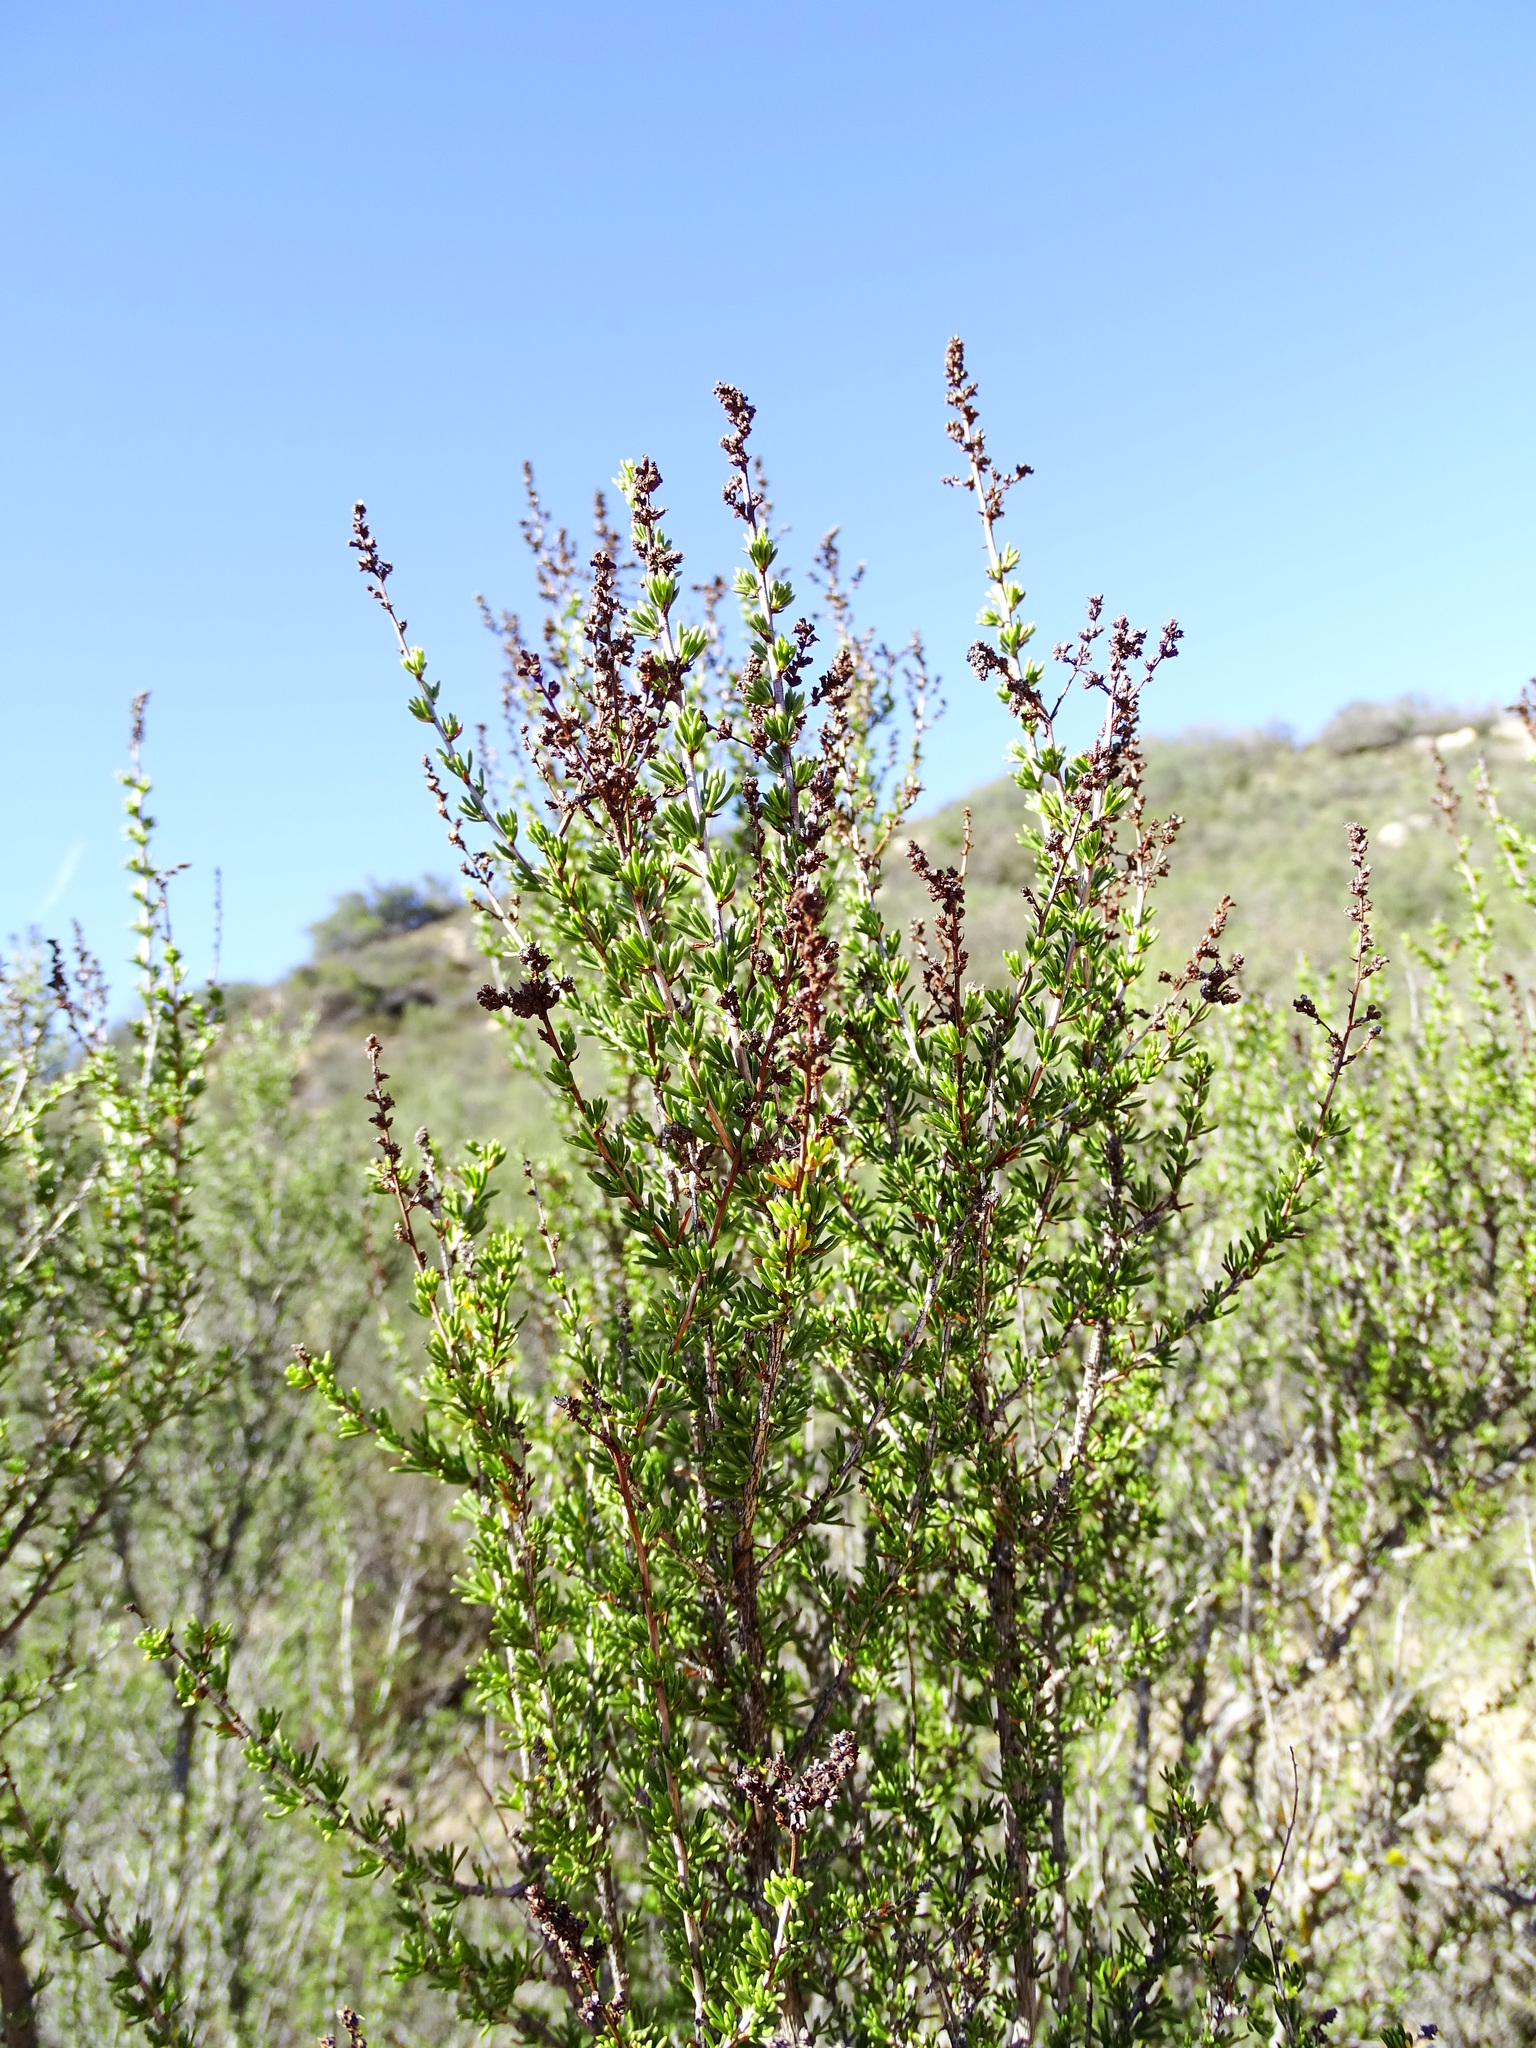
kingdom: Plantae
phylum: Tracheophyta
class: Magnoliopsida
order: Rosales
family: Rosaceae
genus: Adenostoma
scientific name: Adenostoma fasciculatum
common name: Chamise
